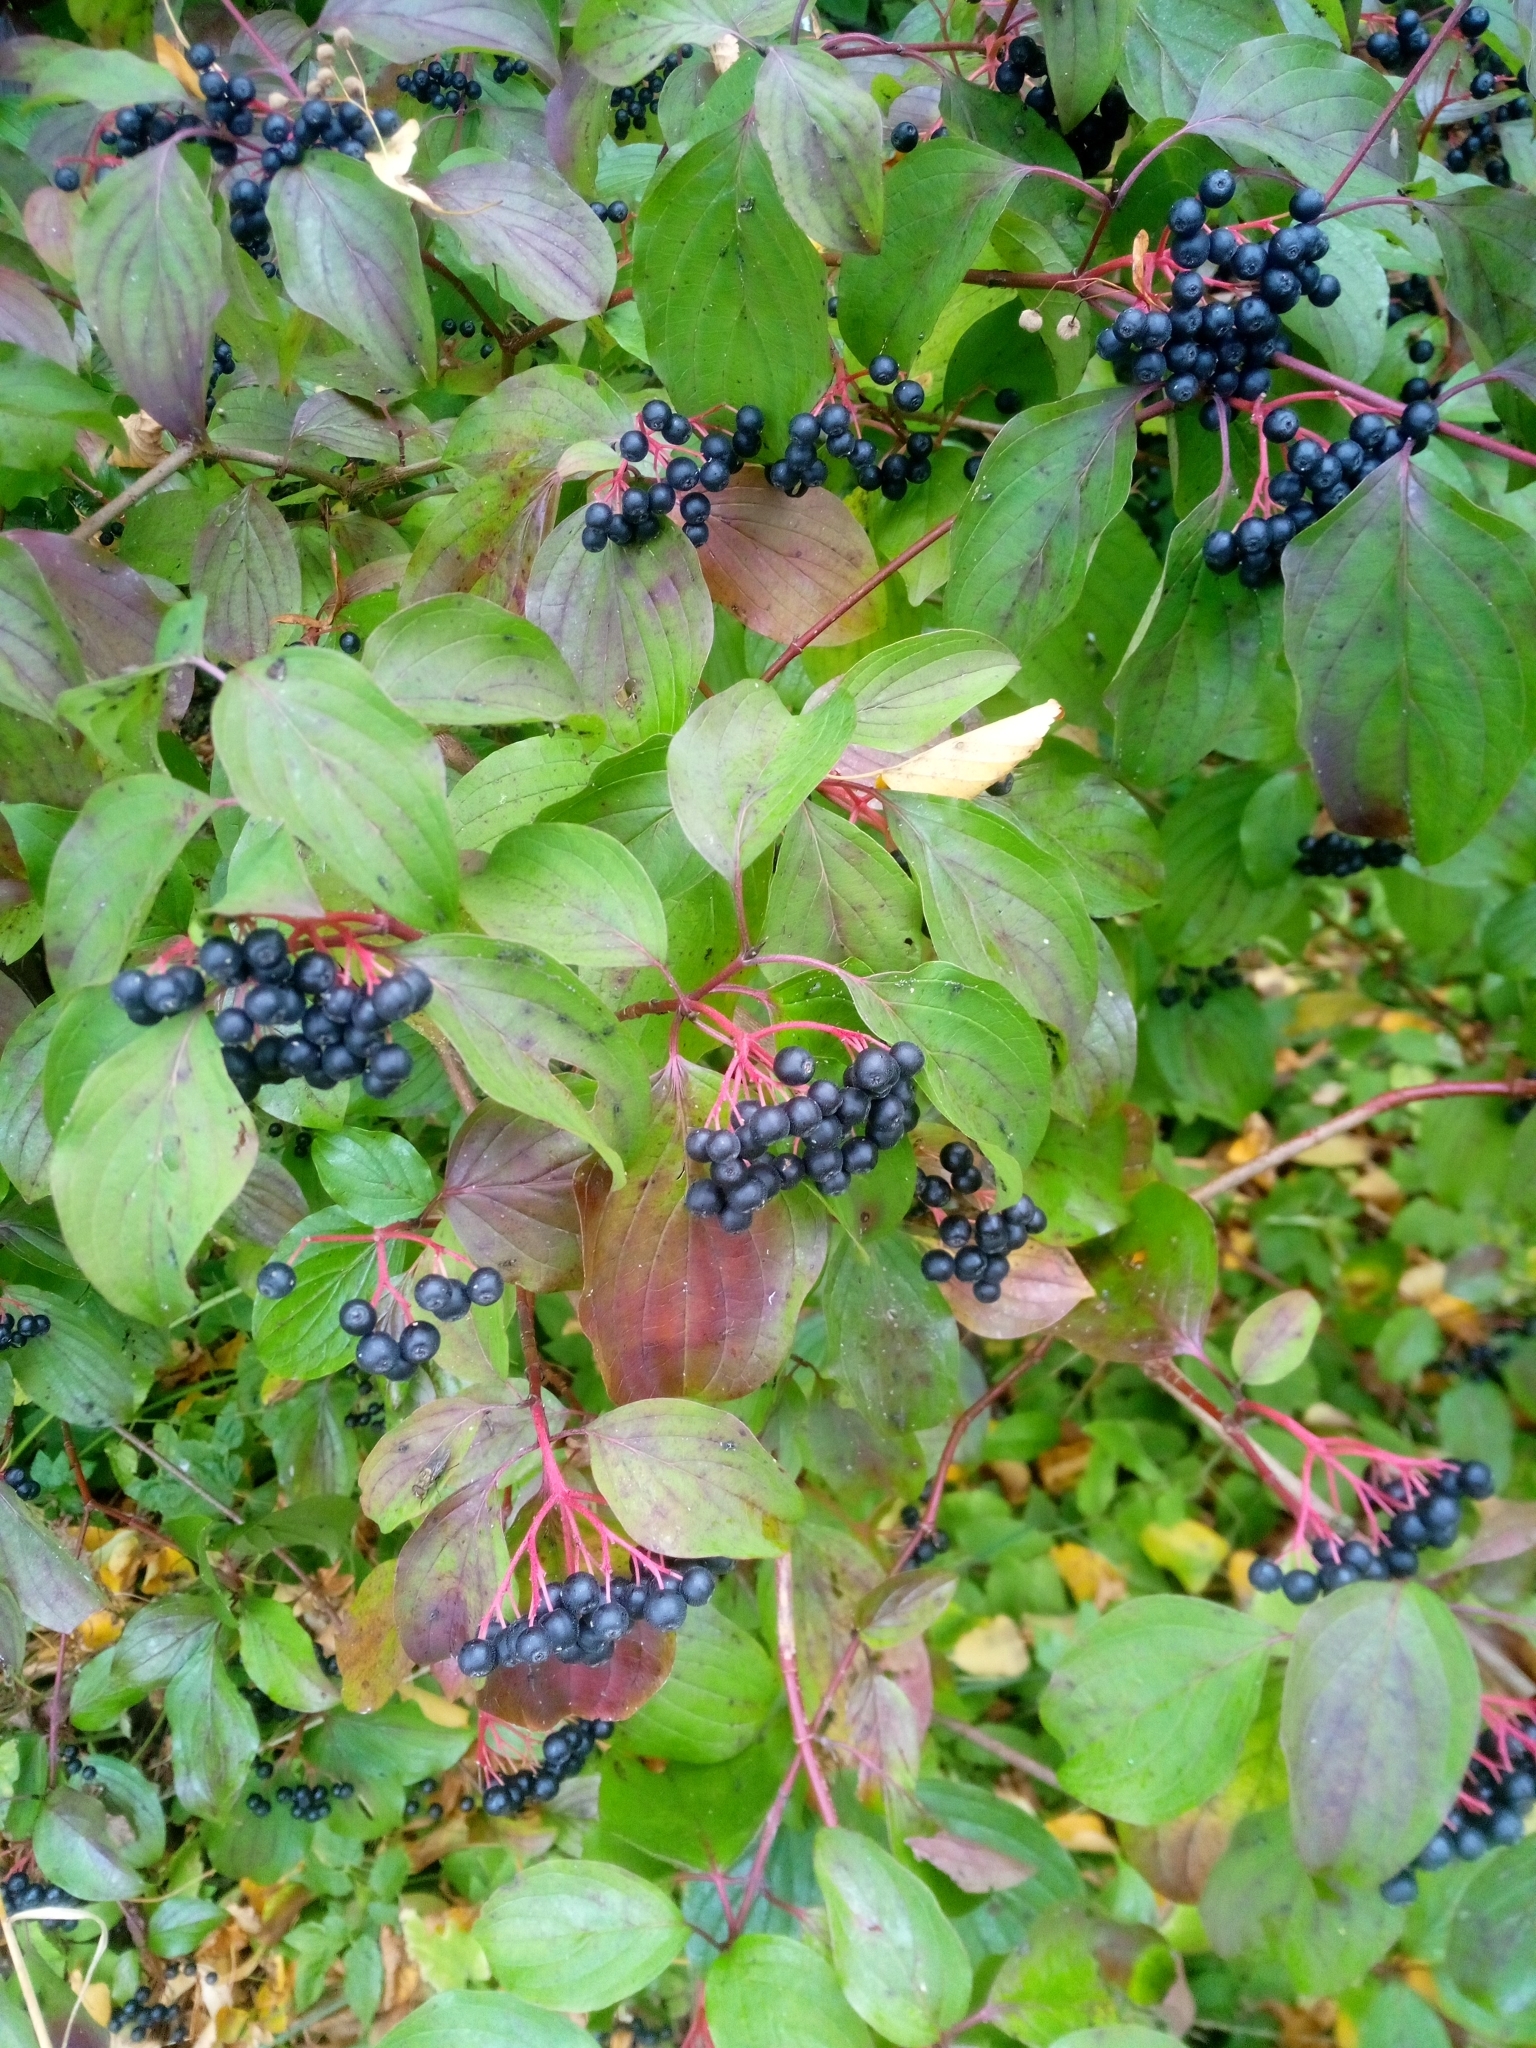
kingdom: Plantae
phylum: Tracheophyta
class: Magnoliopsida
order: Cornales
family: Cornaceae
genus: Cornus
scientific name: Cornus sanguinea
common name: Dogwood
